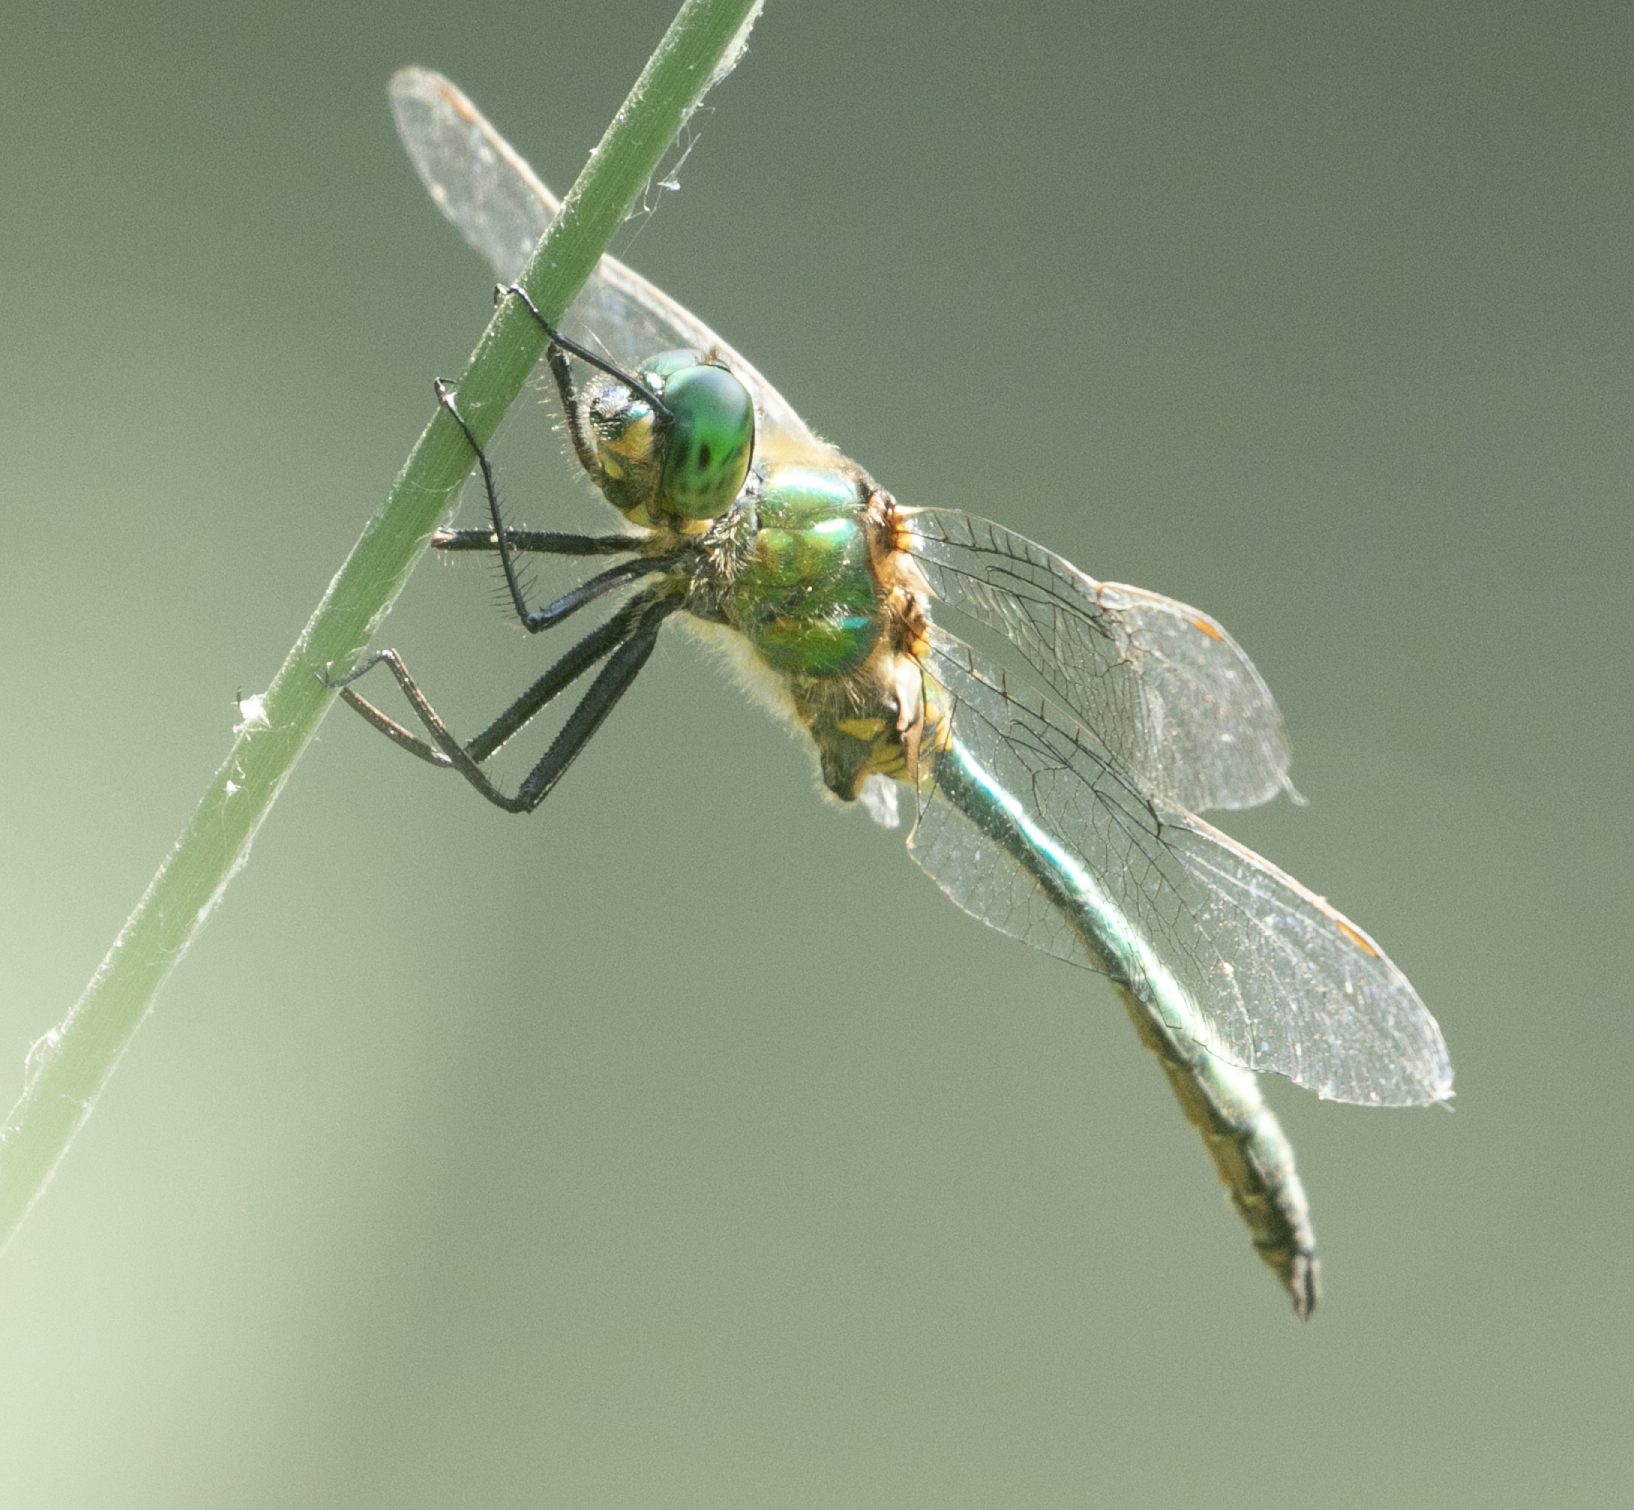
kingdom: Animalia
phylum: Arthropoda
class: Insecta
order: Odonata
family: Corduliidae
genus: Somatochlora
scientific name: Somatochlora metallica
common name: Brilliant emerald
